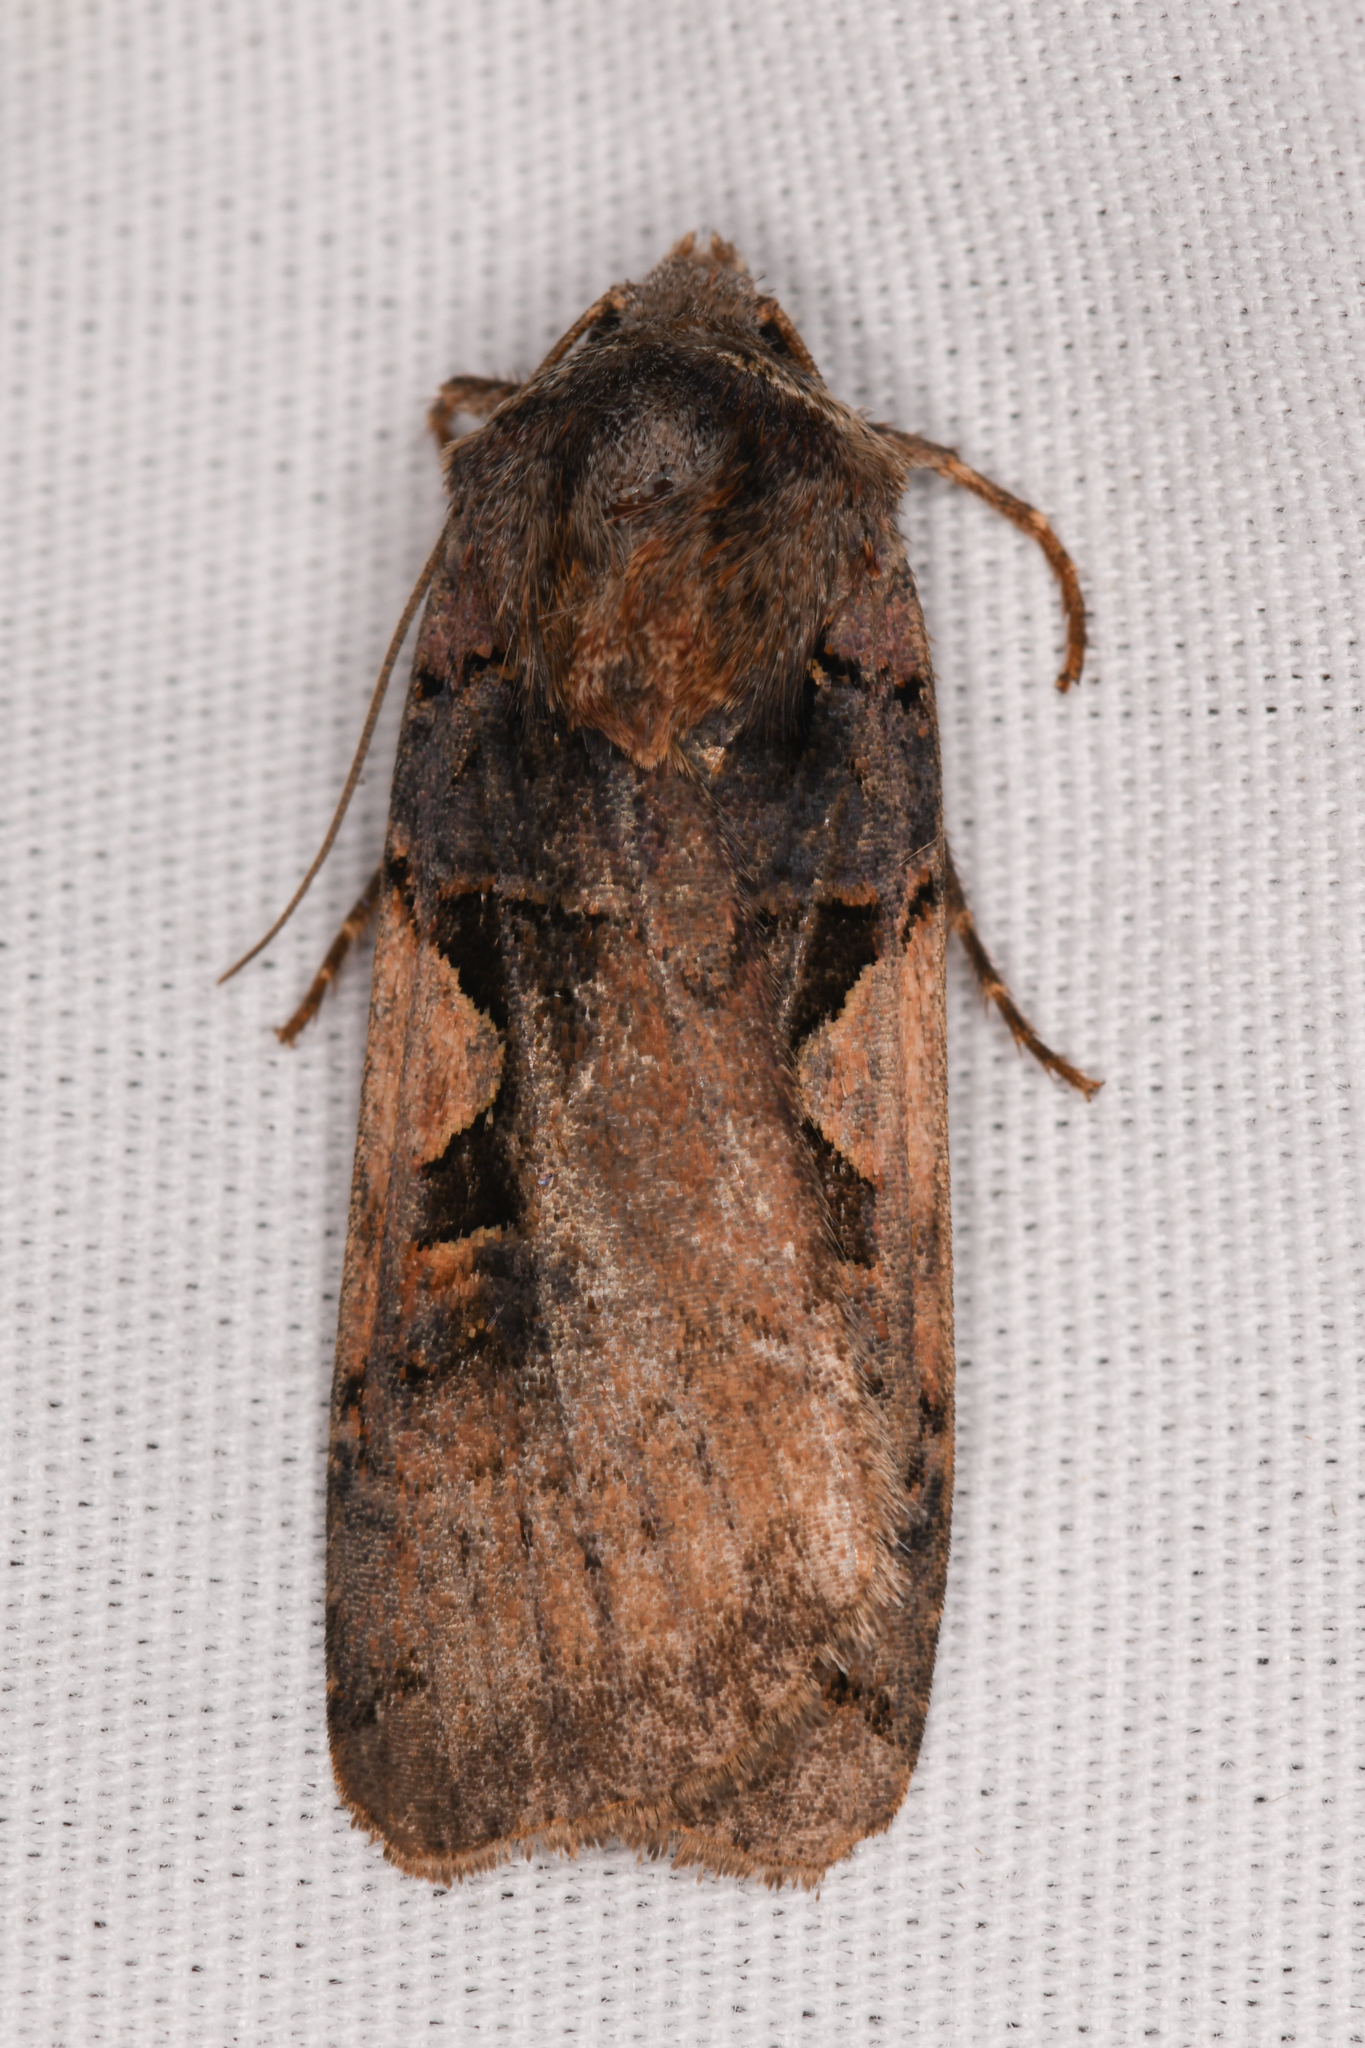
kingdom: Animalia
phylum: Arthropoda
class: Insecta
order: Lepidoptera
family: Noctuidae
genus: Xestia
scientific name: Xestia c-nigrum
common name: Setaceous hebrew character
